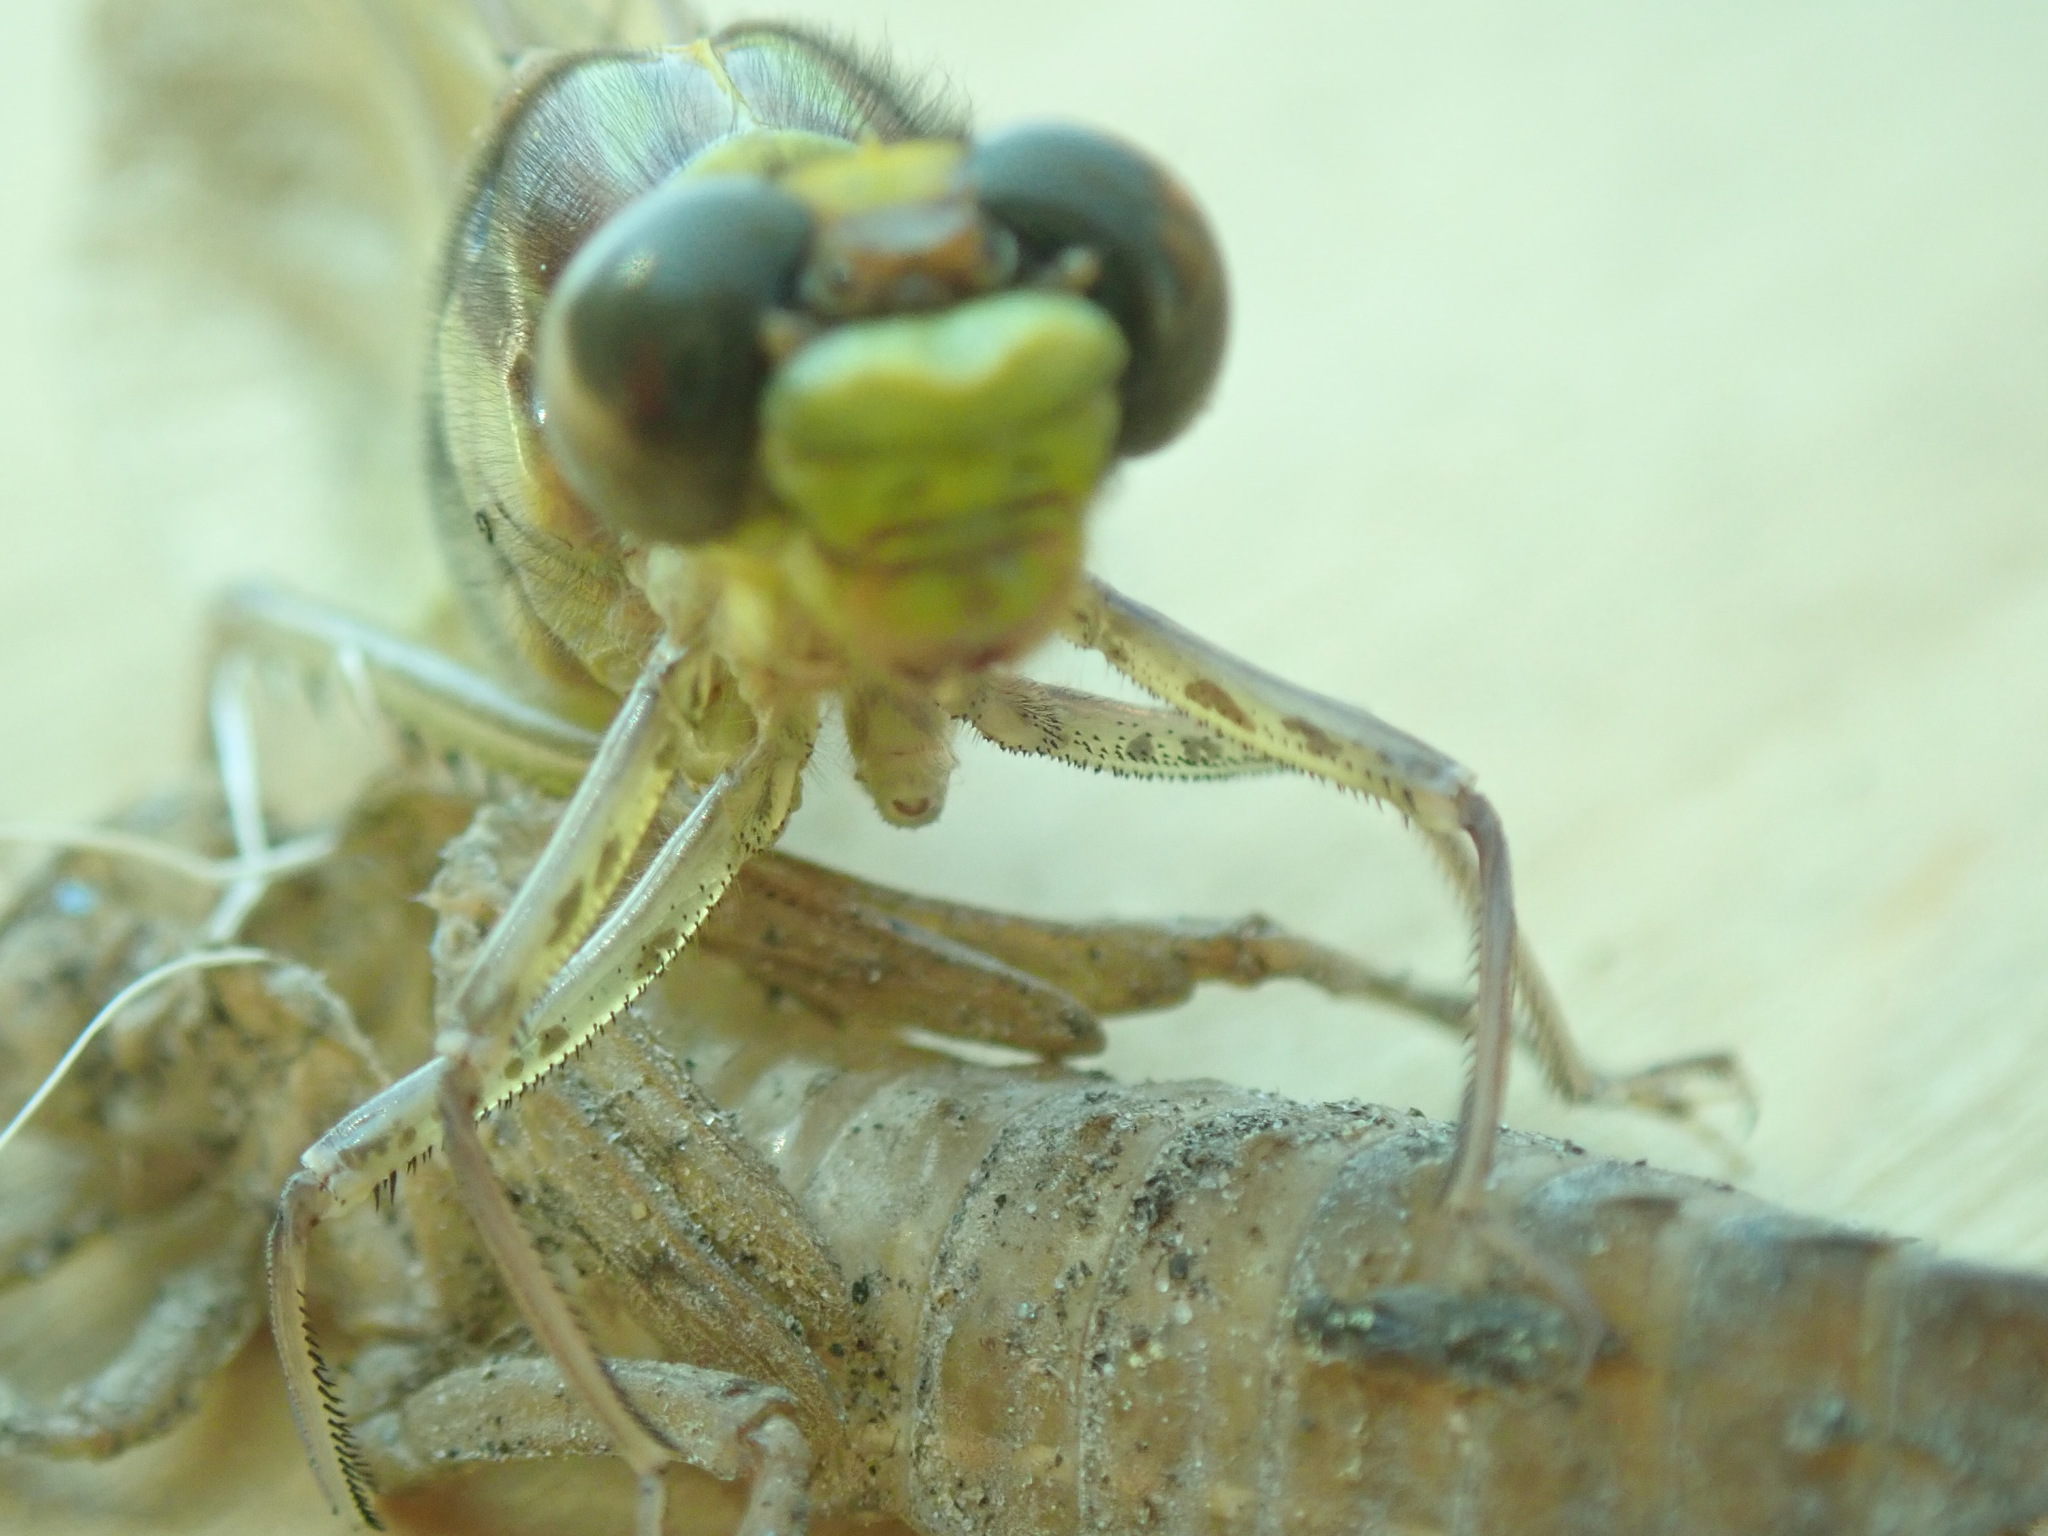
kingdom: Animalia
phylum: Arthropoda
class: Insecta
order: Odonata
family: Gomphidae
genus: Dromogomphus
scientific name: Dromogomphus spinosus
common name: Black-shouldered spinyleg
